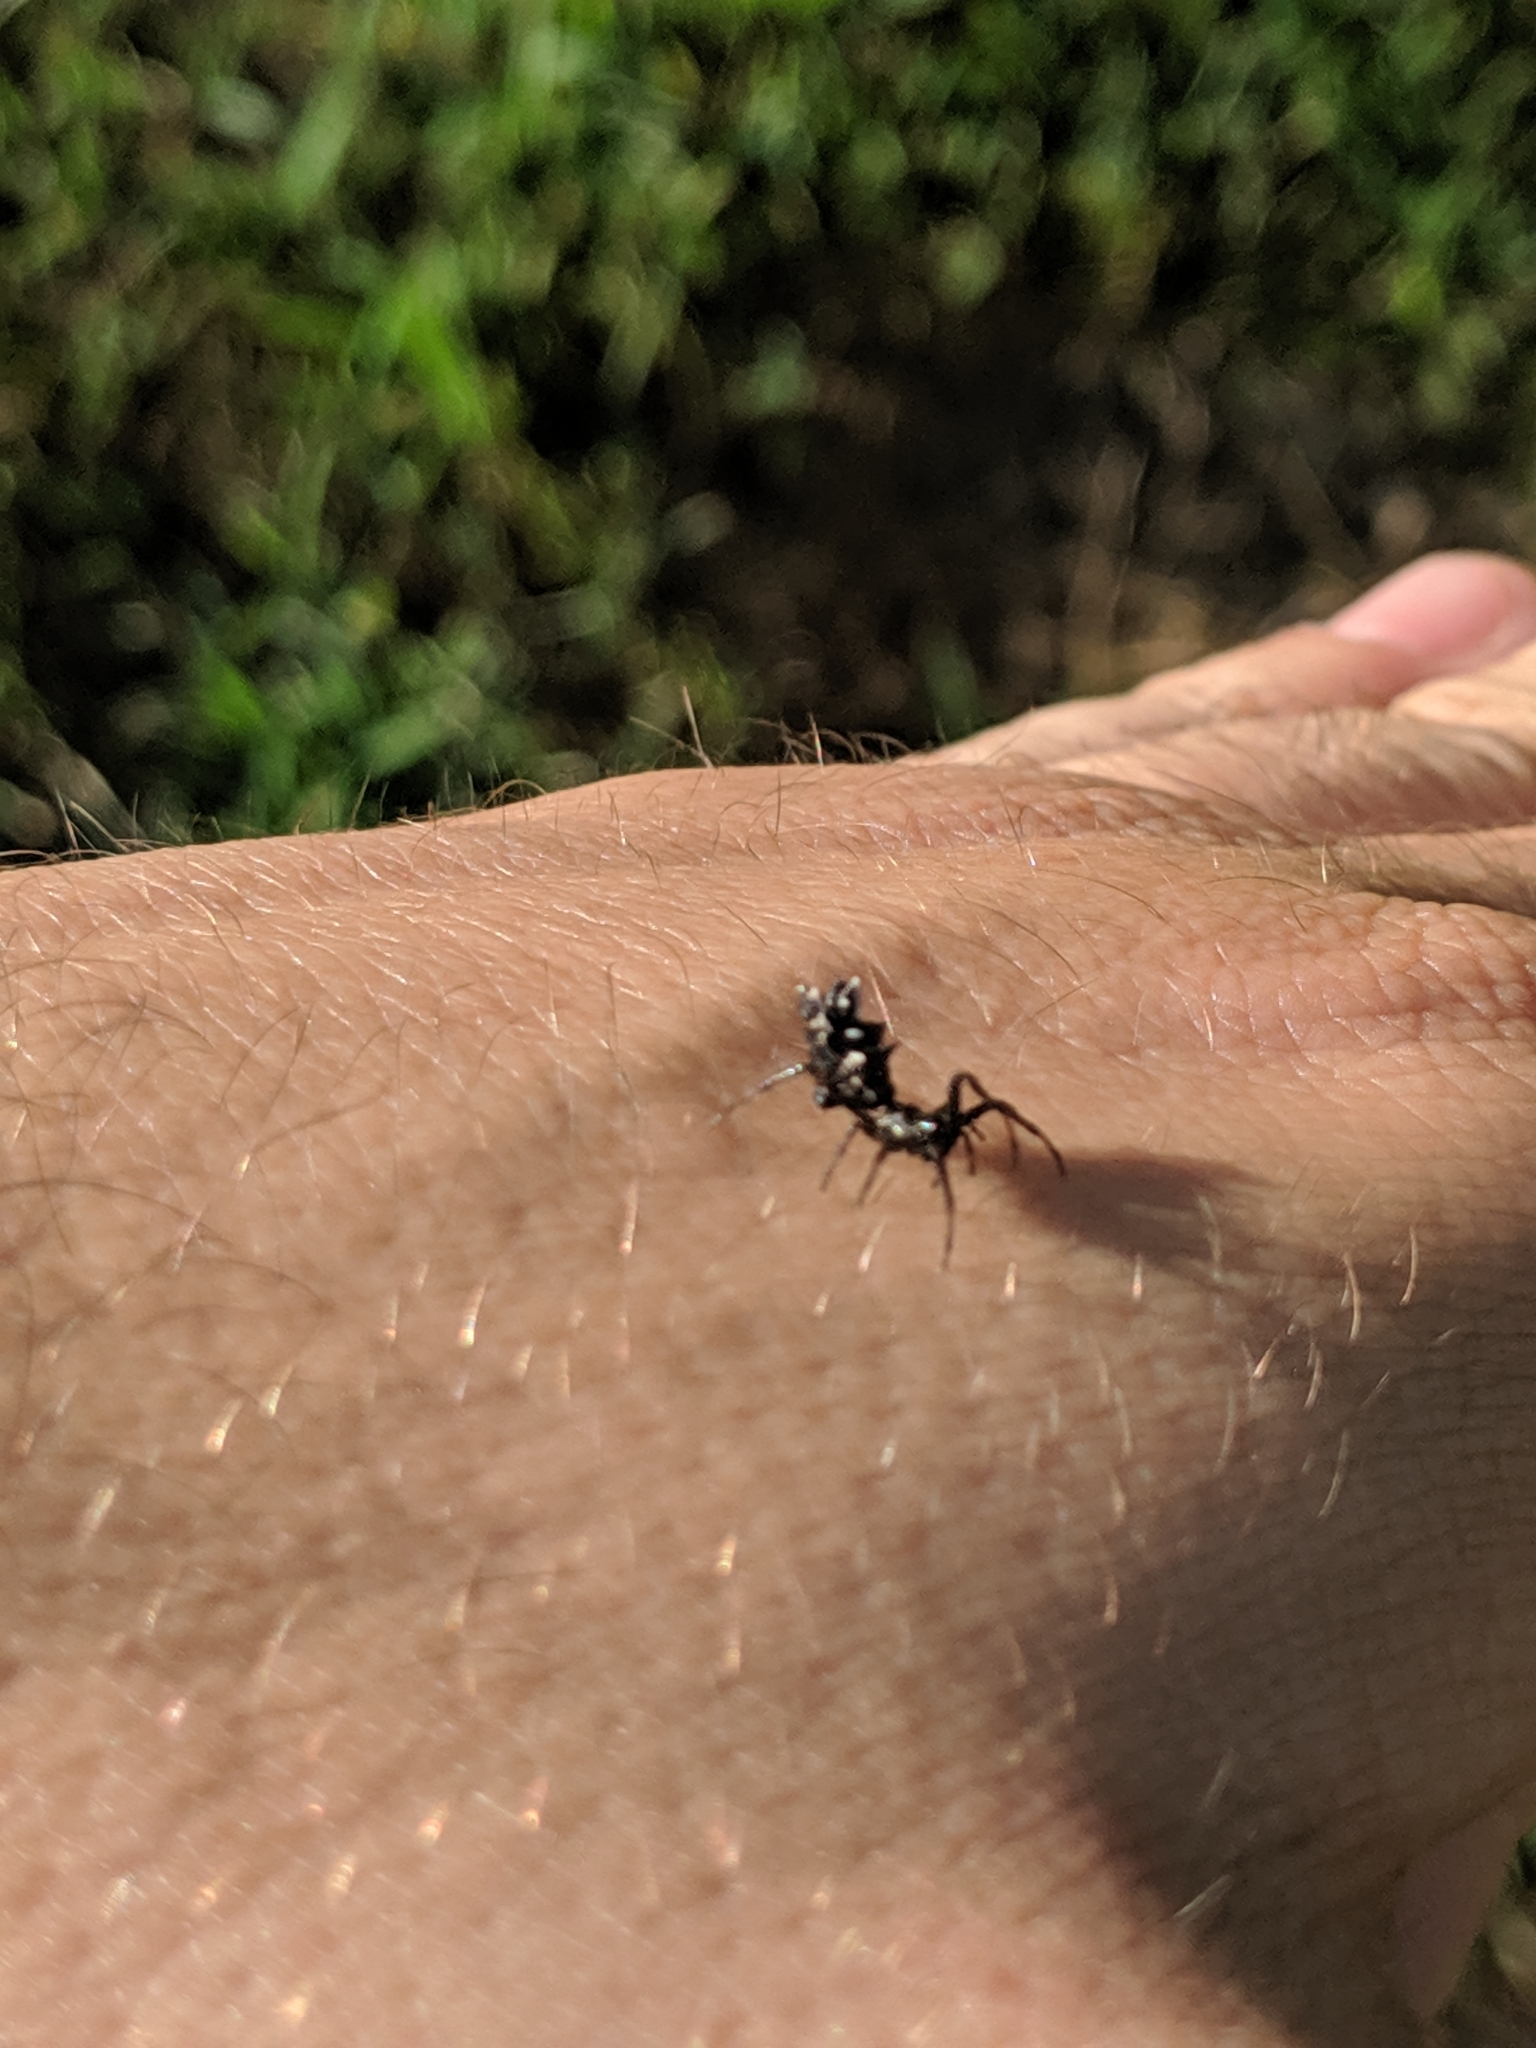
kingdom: Animalia
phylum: Arthropoda
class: Arachnida
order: Araneae
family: Araneidae
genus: Micrathena
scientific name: Micrathena gracilis
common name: Orb weavers
